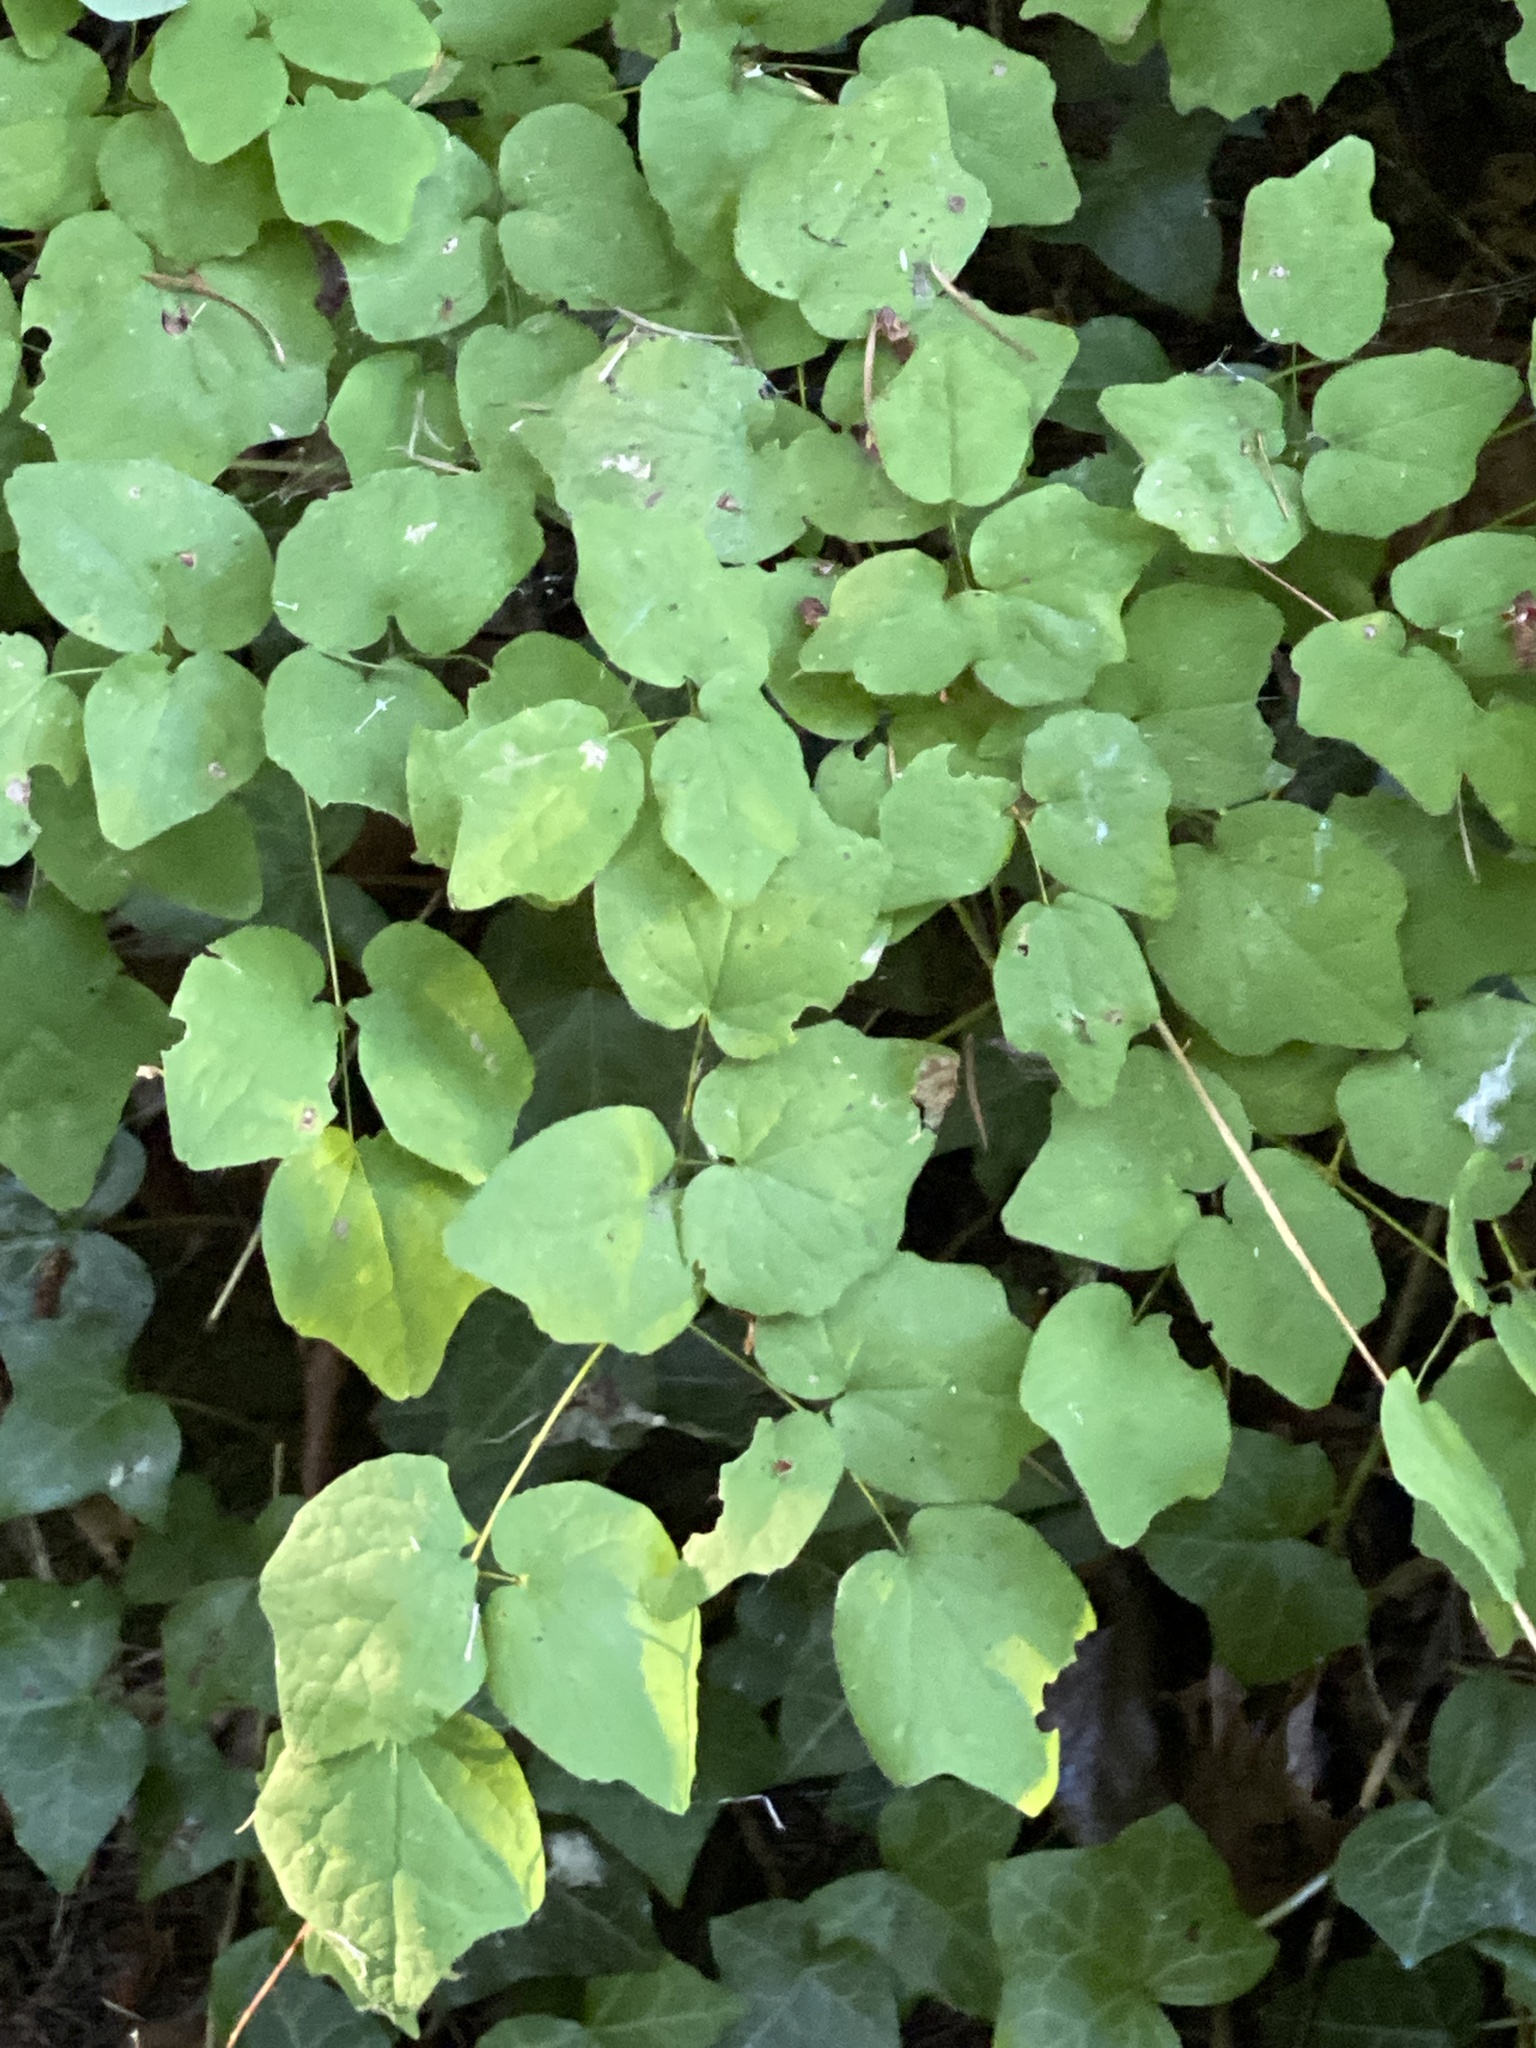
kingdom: Plantae
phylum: Tracheophyta
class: Magnoliopsida
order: Ranunculales
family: Berberidaceae
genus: Vancouveria
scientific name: Vancouveria hexandra
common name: Northern inside-out-flower
